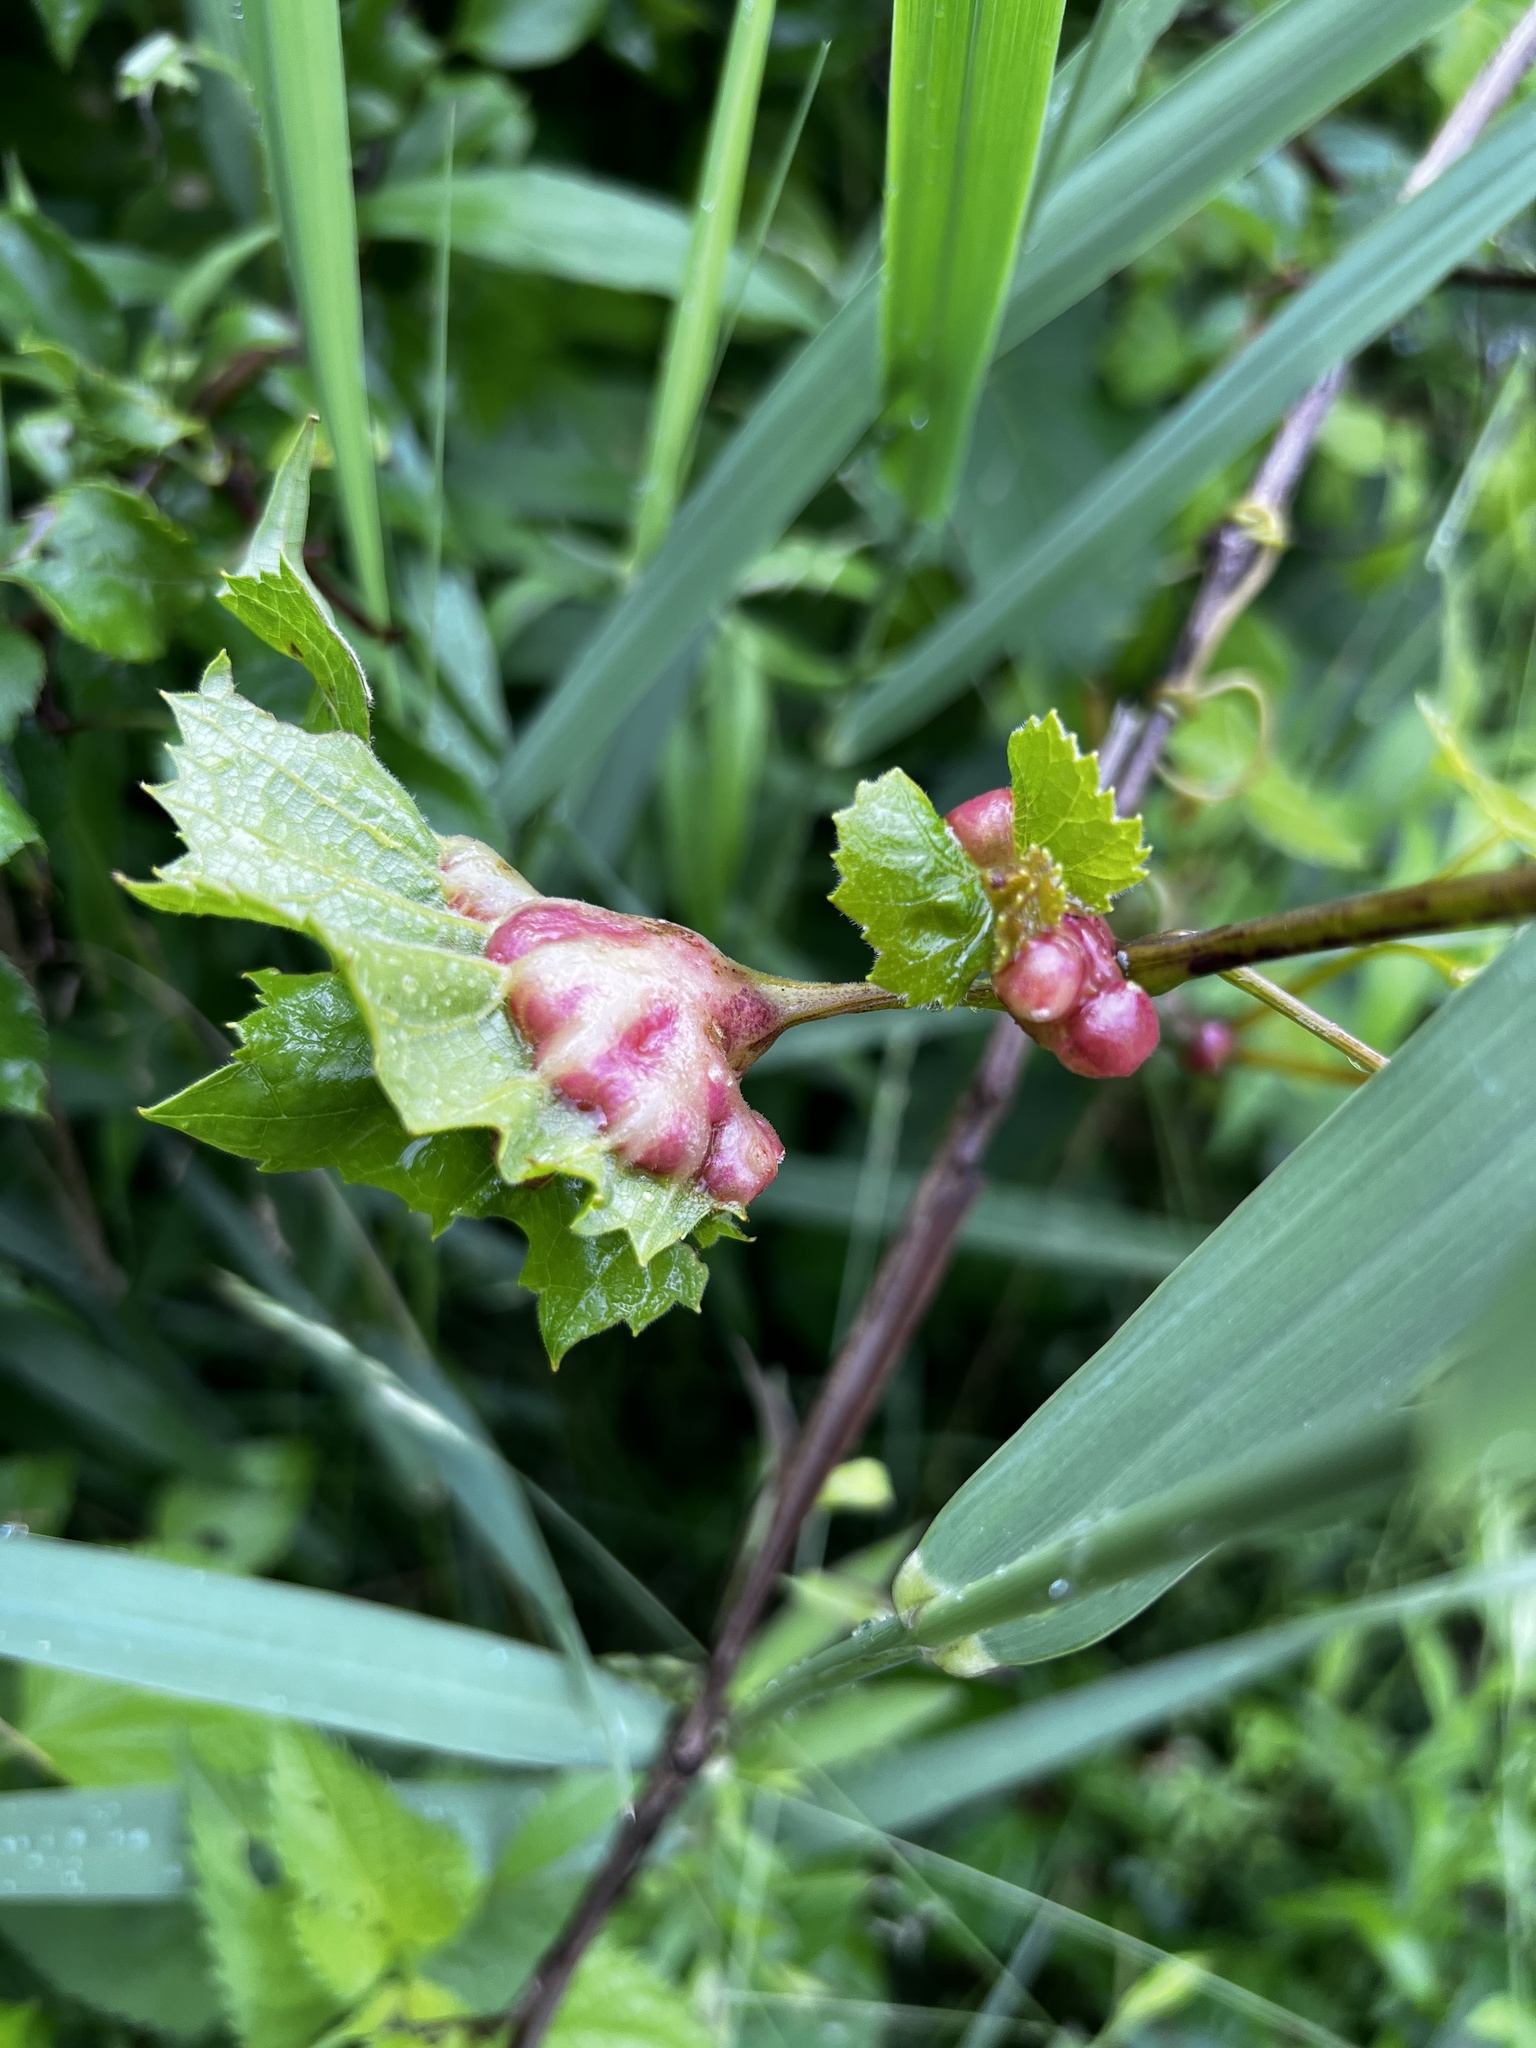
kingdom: Animalia
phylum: Arthropoda
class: Insecta
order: Diptera
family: Cecidomyiidae
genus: Vitisiella
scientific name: Vitisiella brevicauda
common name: Grape tumid gallmaker midge
